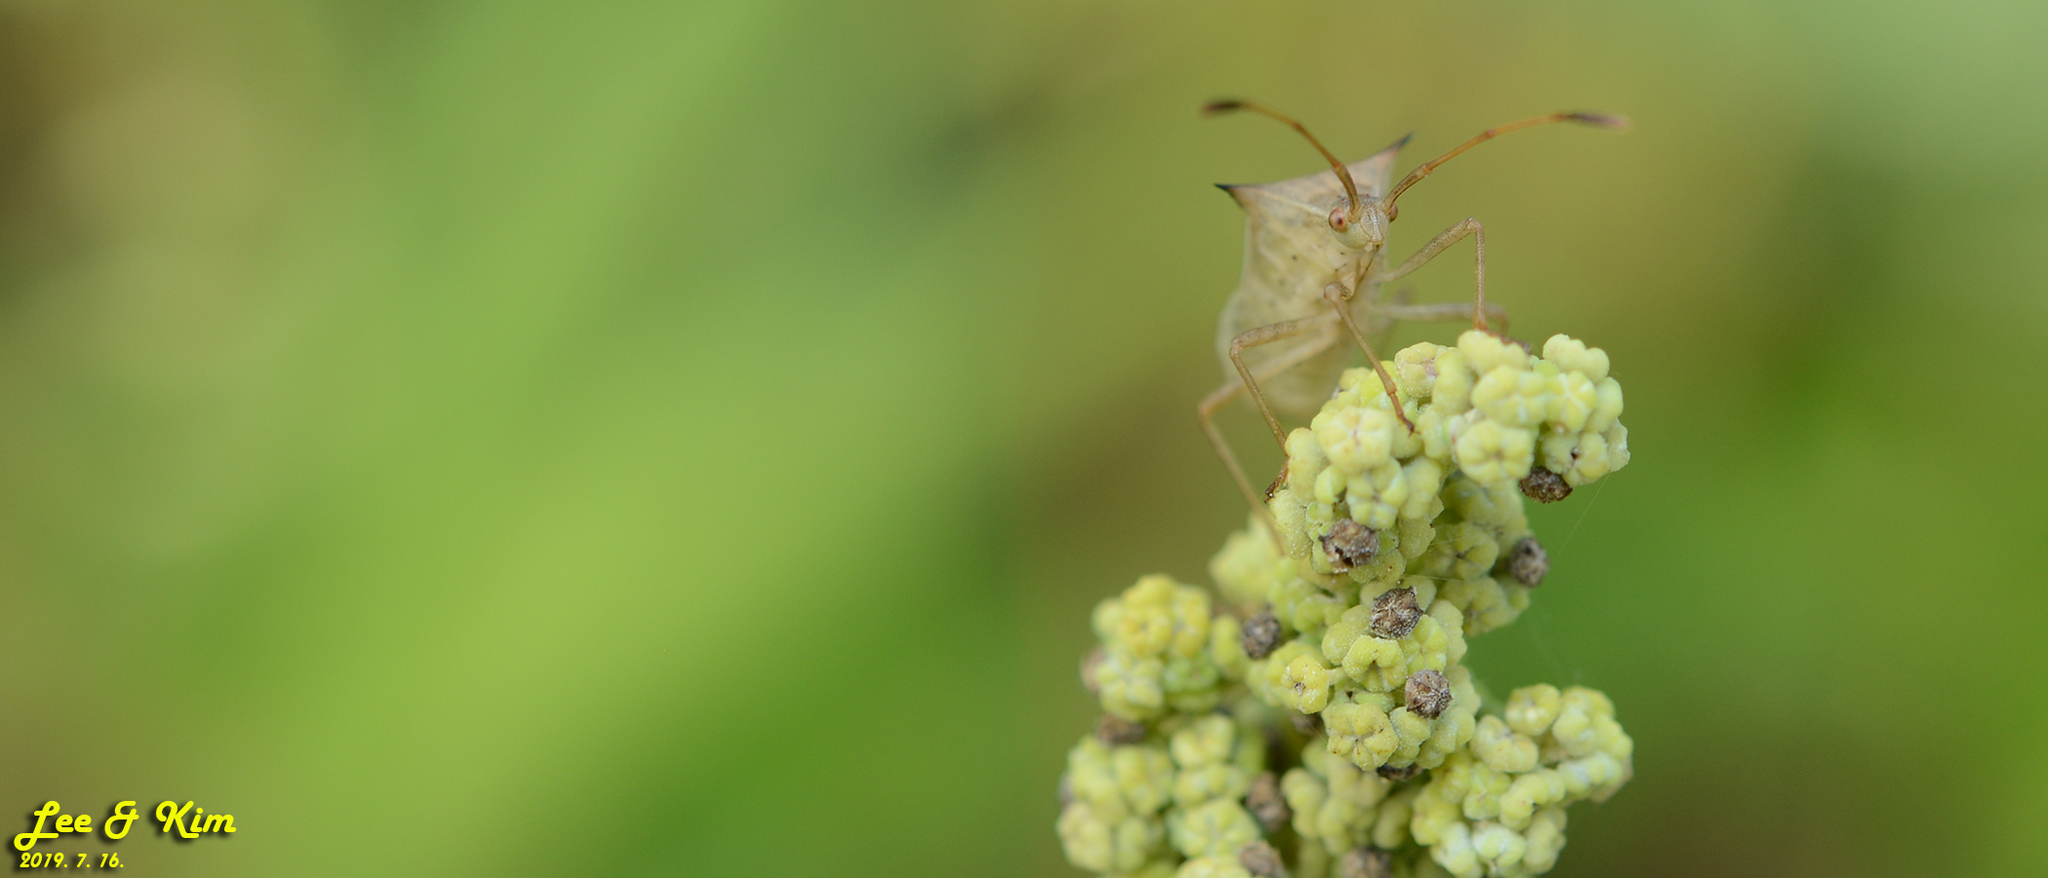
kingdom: Animalia
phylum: Arthropoda
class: Insecta
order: Hemiptera
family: Coreidae
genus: Cletus
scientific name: Cletus punctiger
